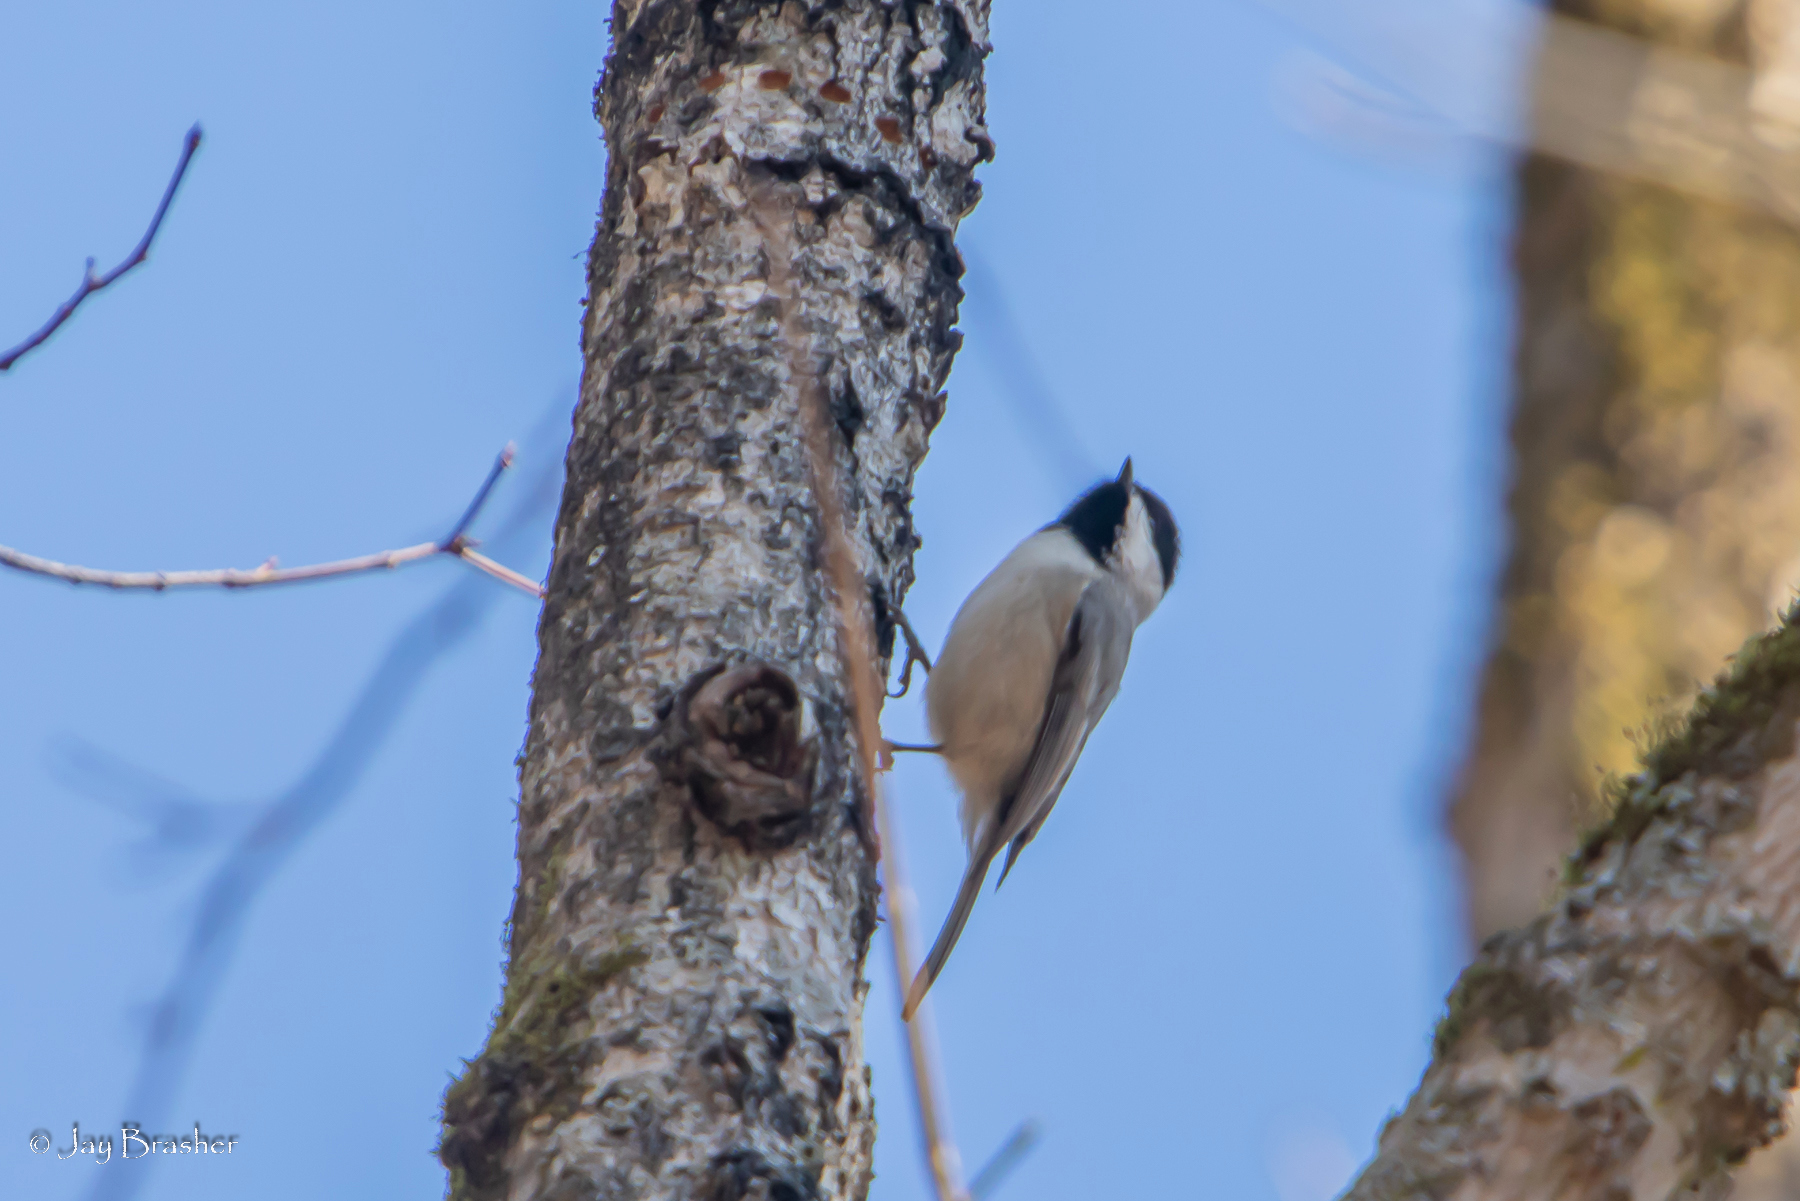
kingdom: Animalia
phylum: Chordata
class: Aves
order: Passeriformes
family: Paridae
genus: Poecile
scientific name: Poecile carolinensis
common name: Carolina chickadee
